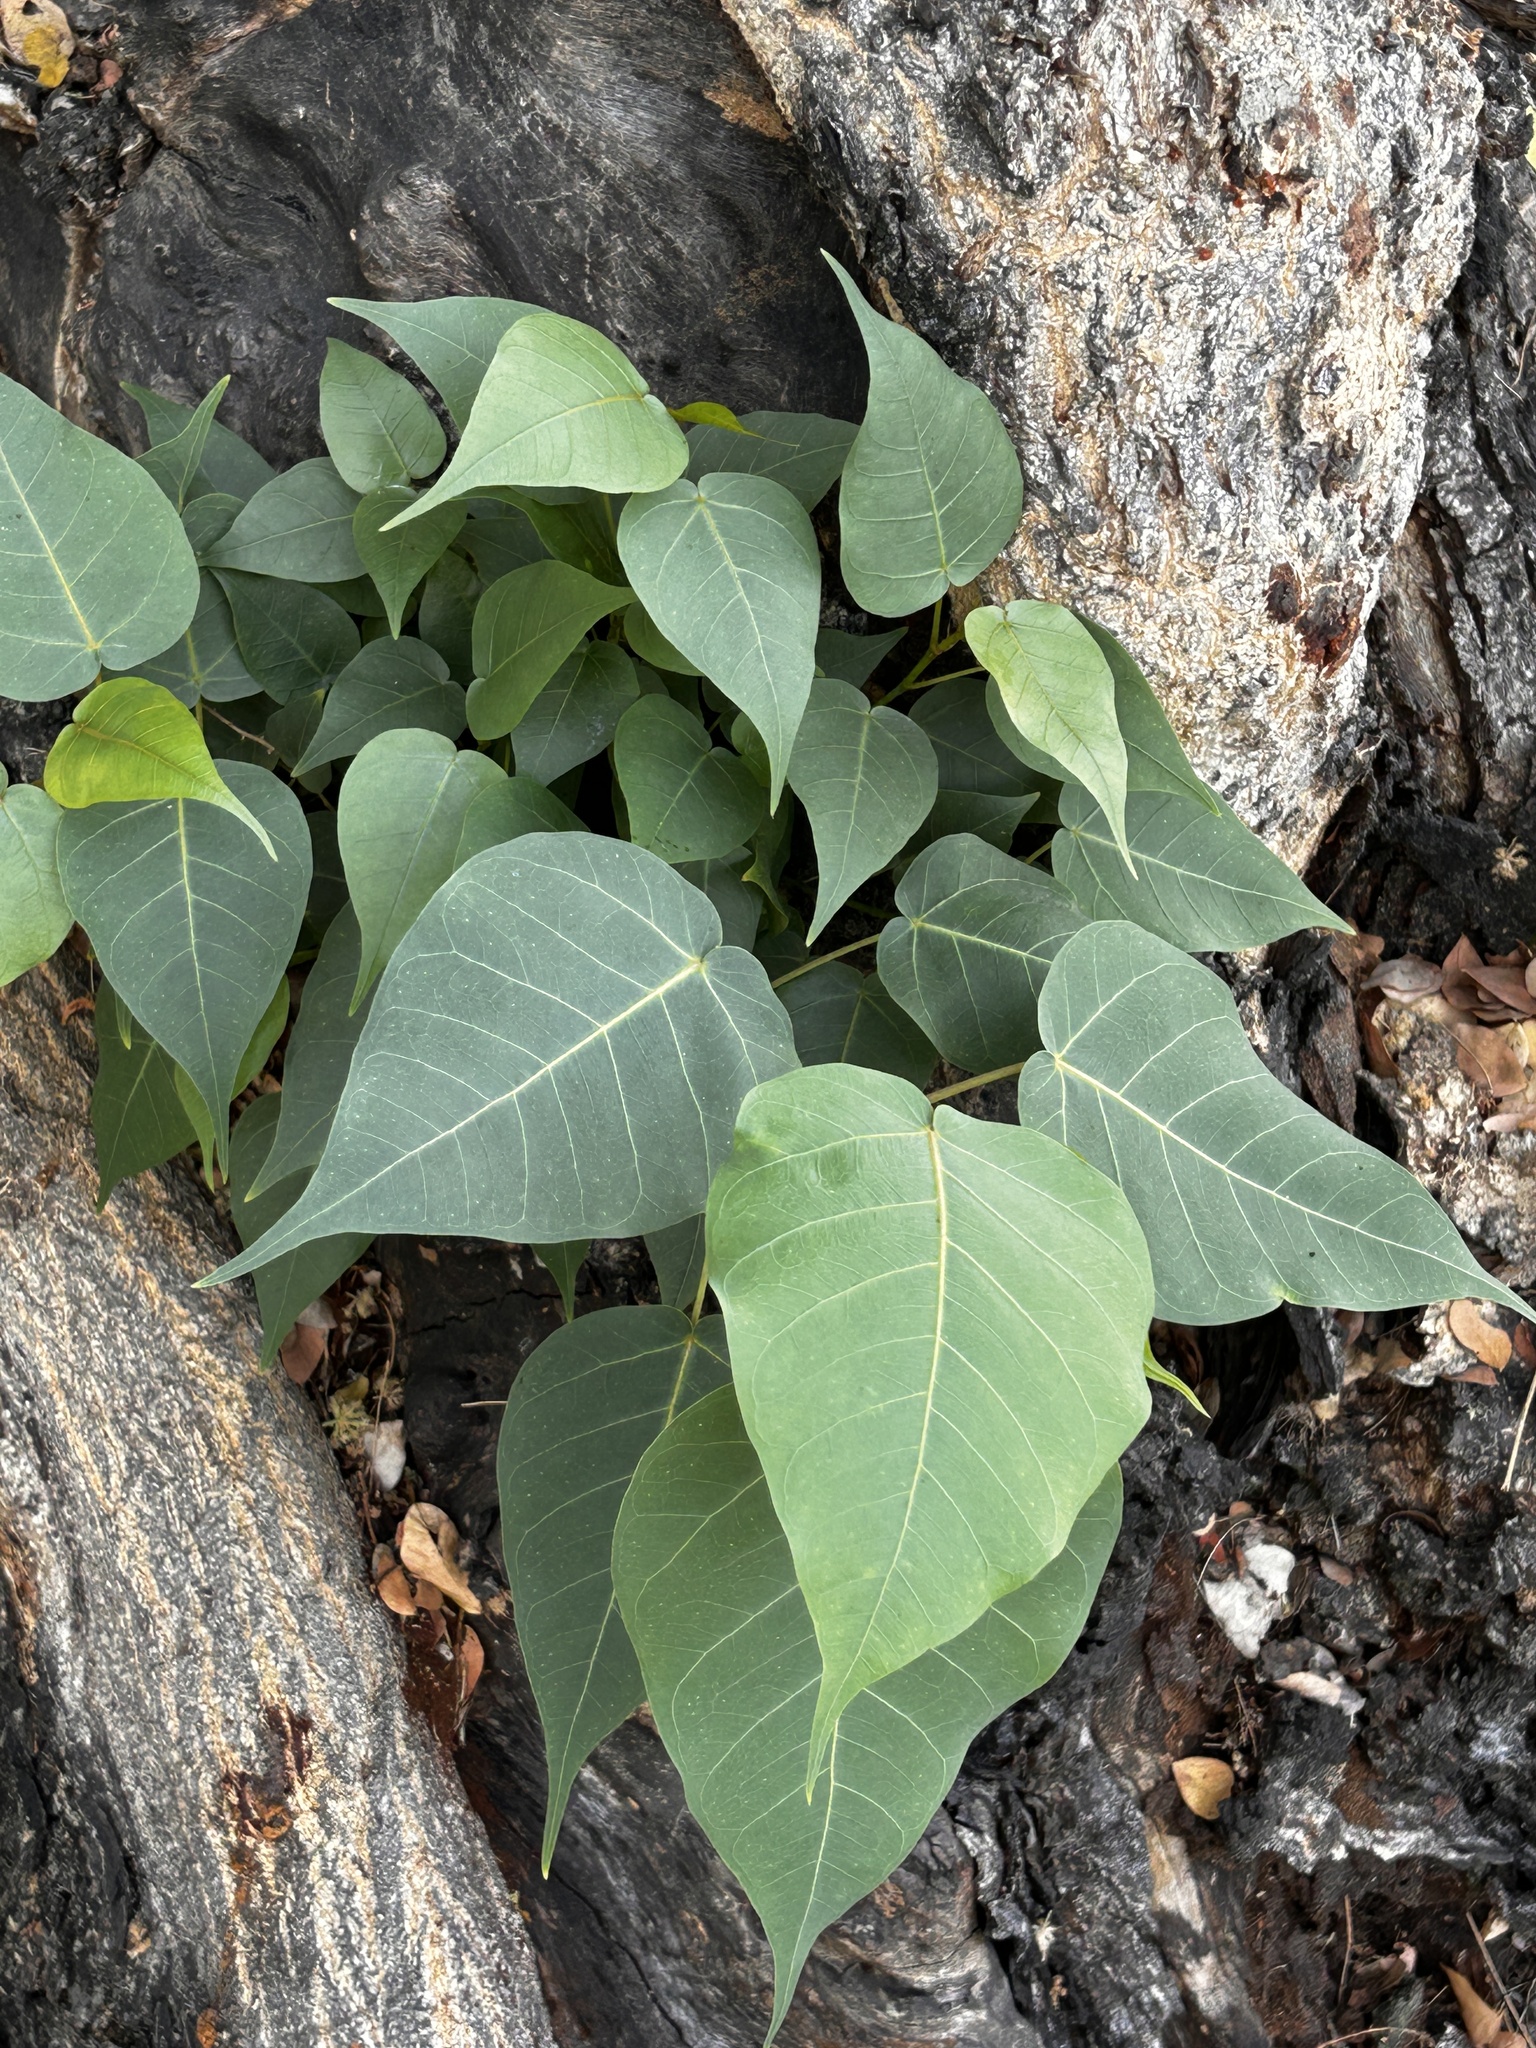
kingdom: Plantae
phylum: Tracheophyta
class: Magnoliopsida
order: Rosales
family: Moraceae
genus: Ficus
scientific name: Ficus religiosa
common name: Bodhi tree
